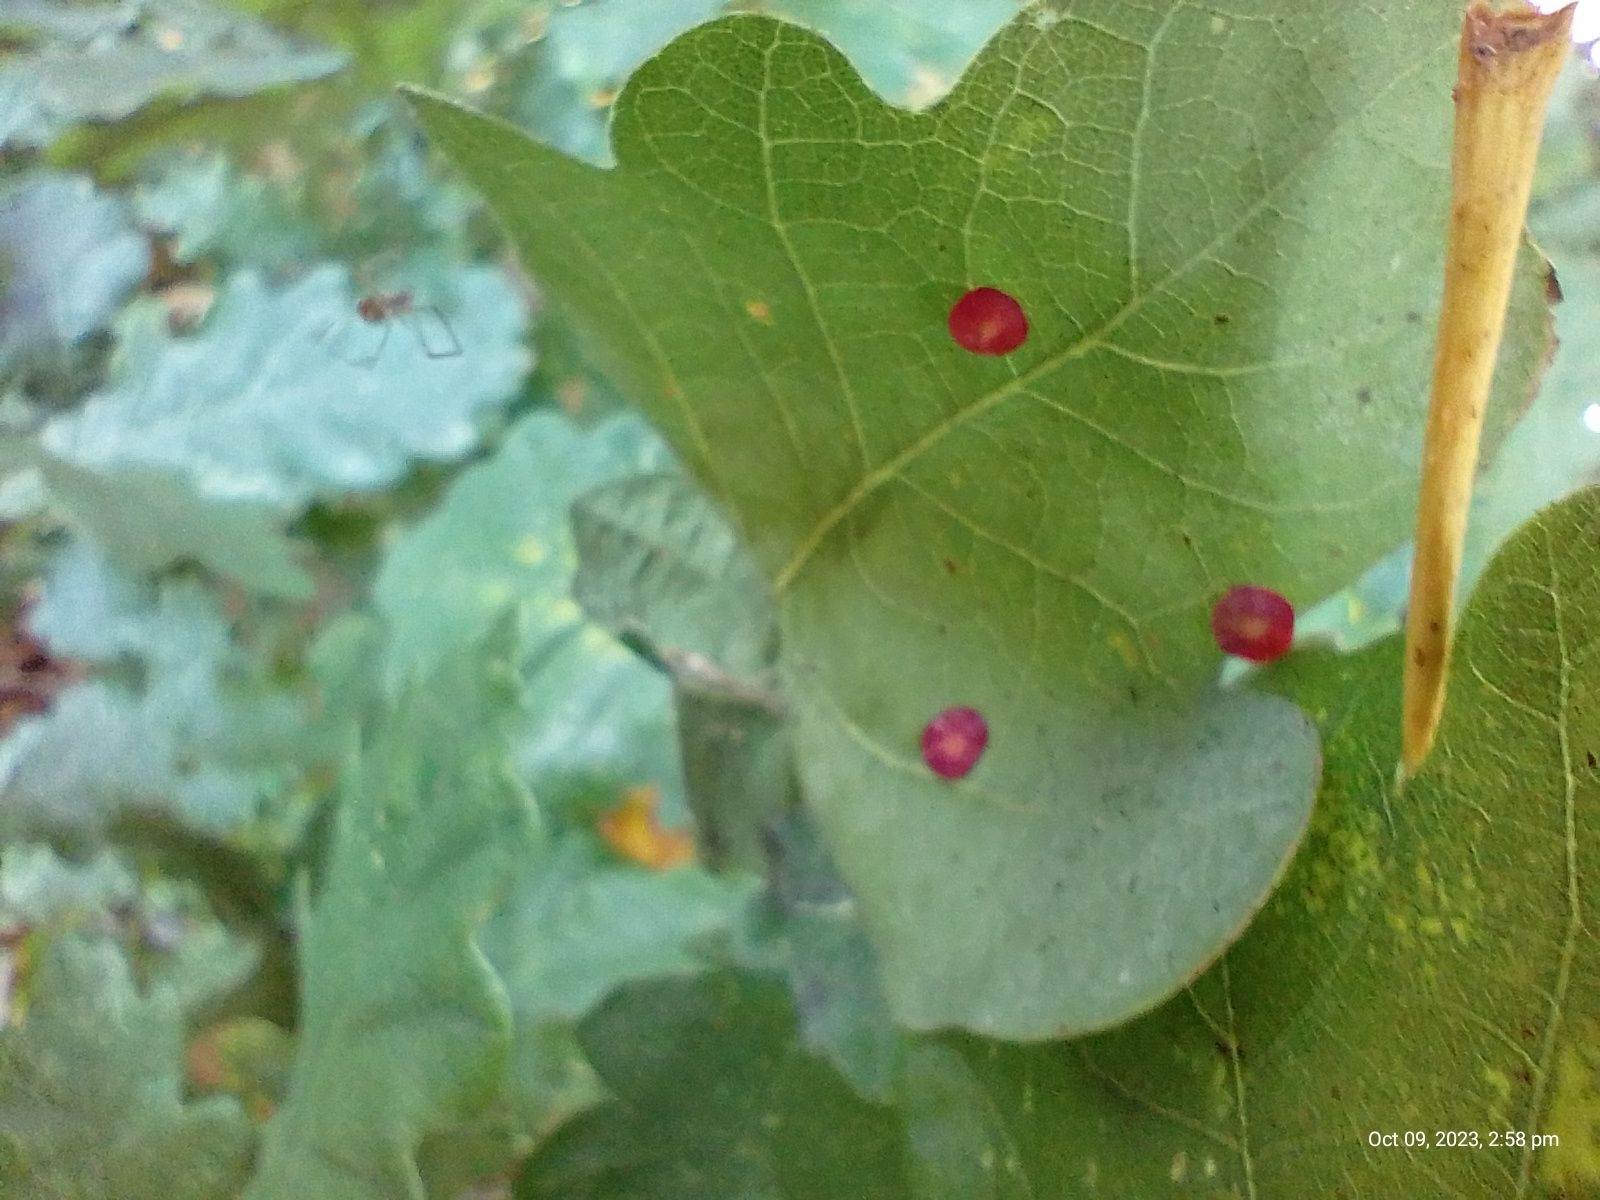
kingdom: Animalia
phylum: Arthropoda
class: Insecta
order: Hymenoptera
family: Cynipidae
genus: Neuroterus
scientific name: Neuroterus quercusbaccarum
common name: Common spangle gall
